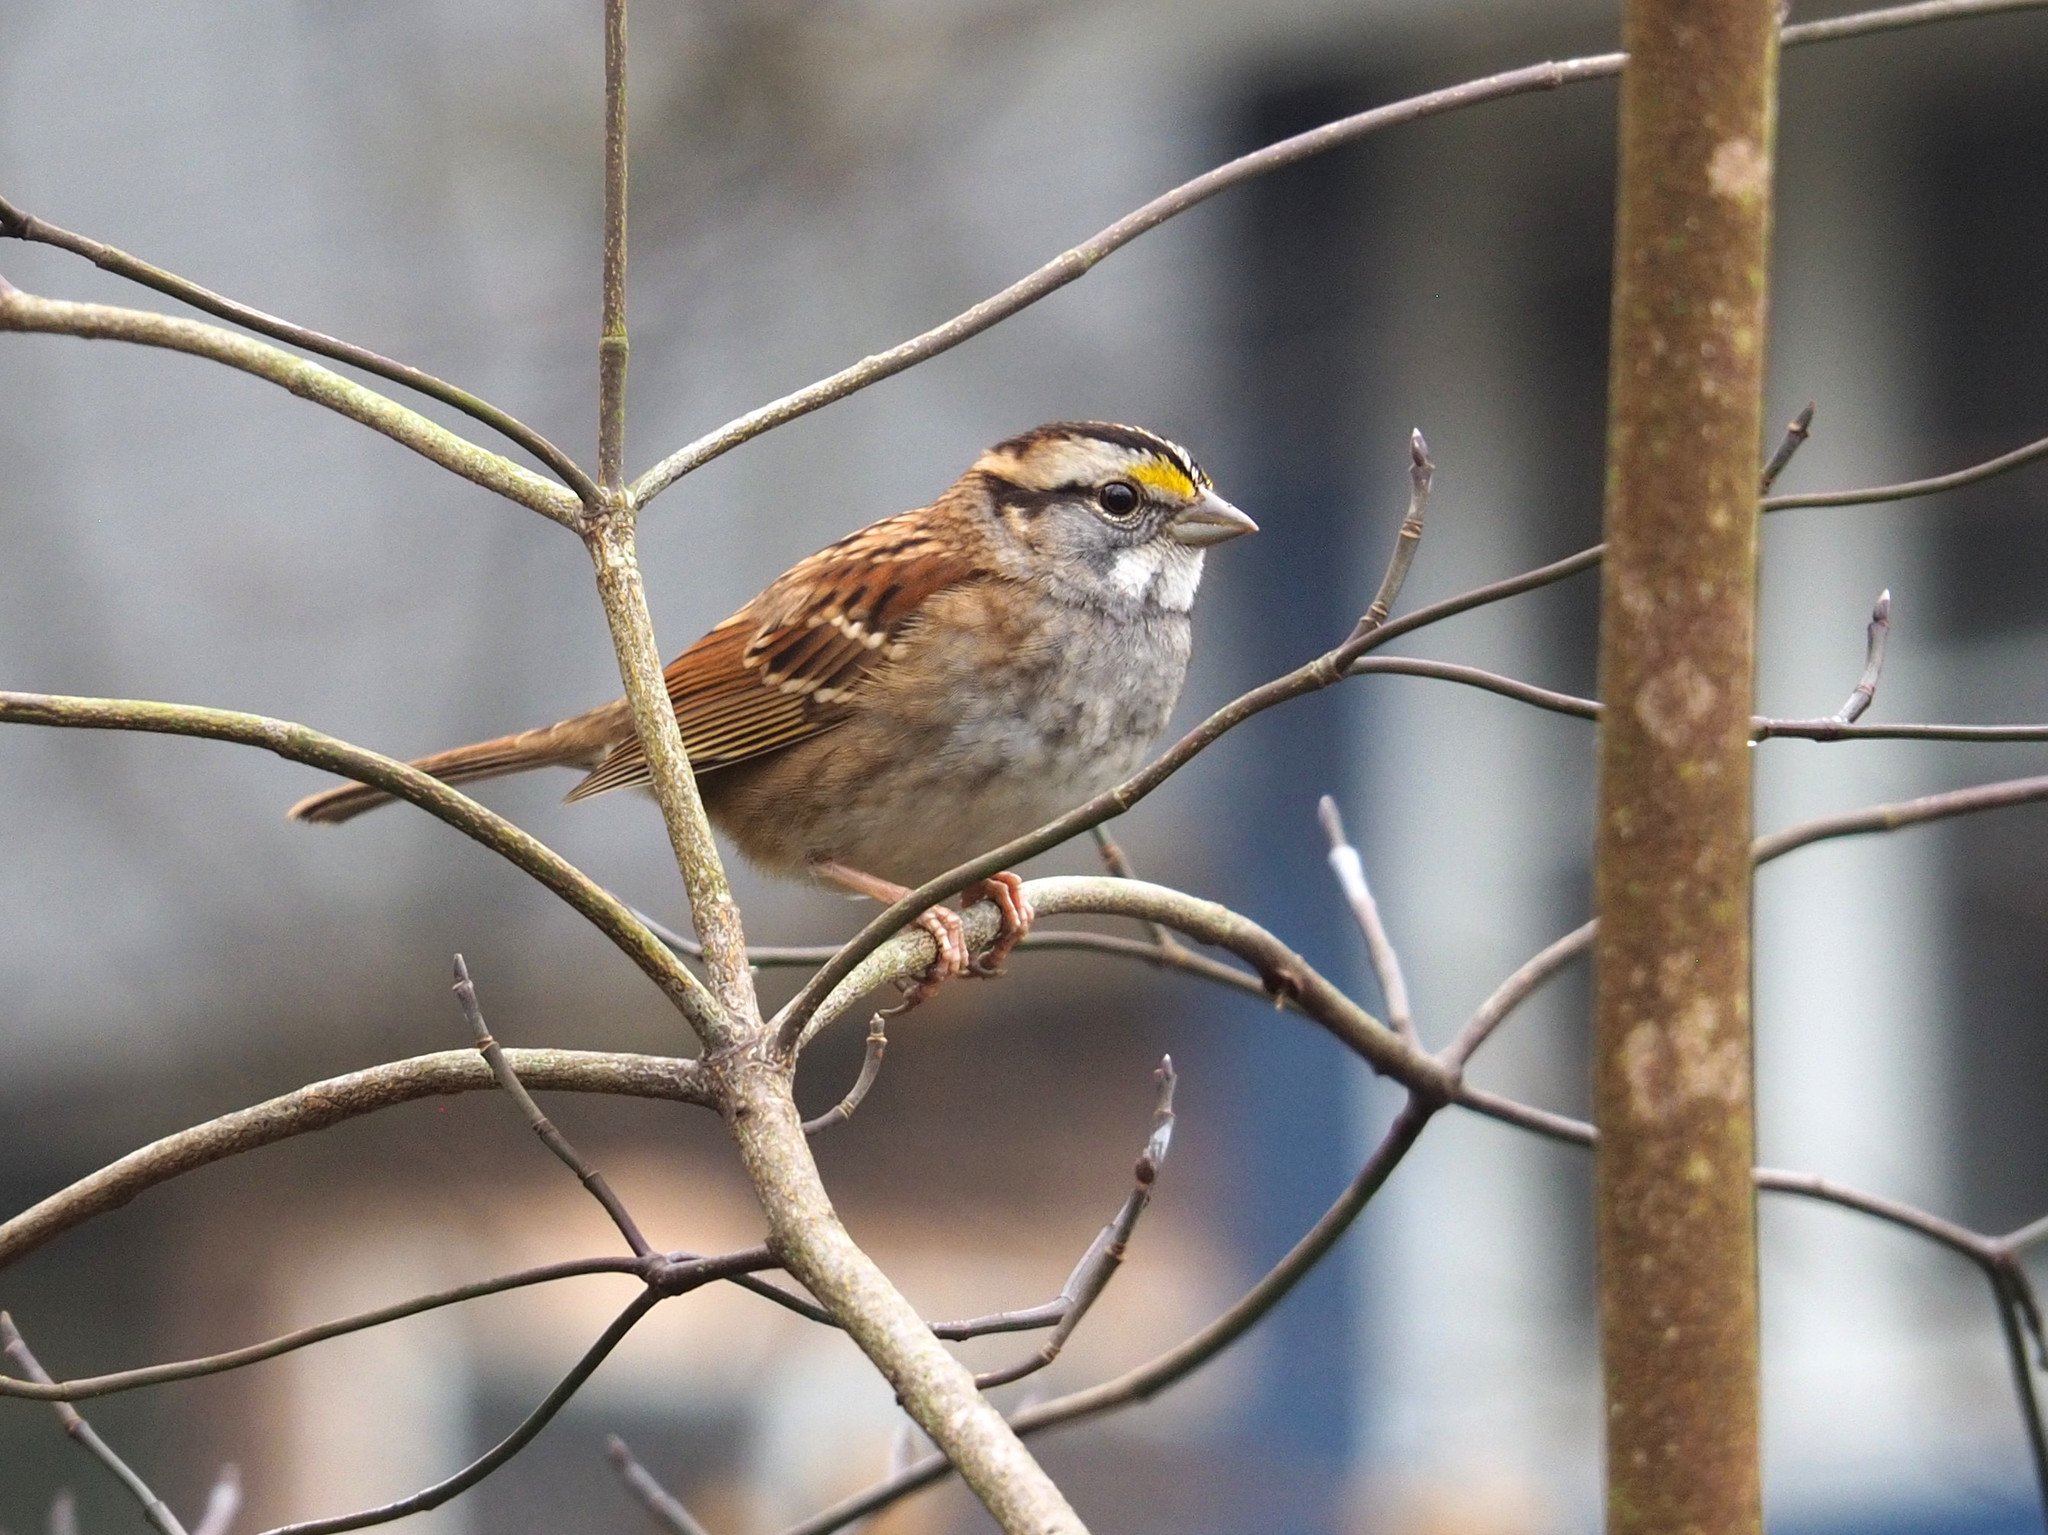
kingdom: Animalia
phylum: Chordata
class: Aves
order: Passeriformes
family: Passerellidae
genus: Zonotrichia
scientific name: Zonotrichia albicollis
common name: White-throated sparrow
